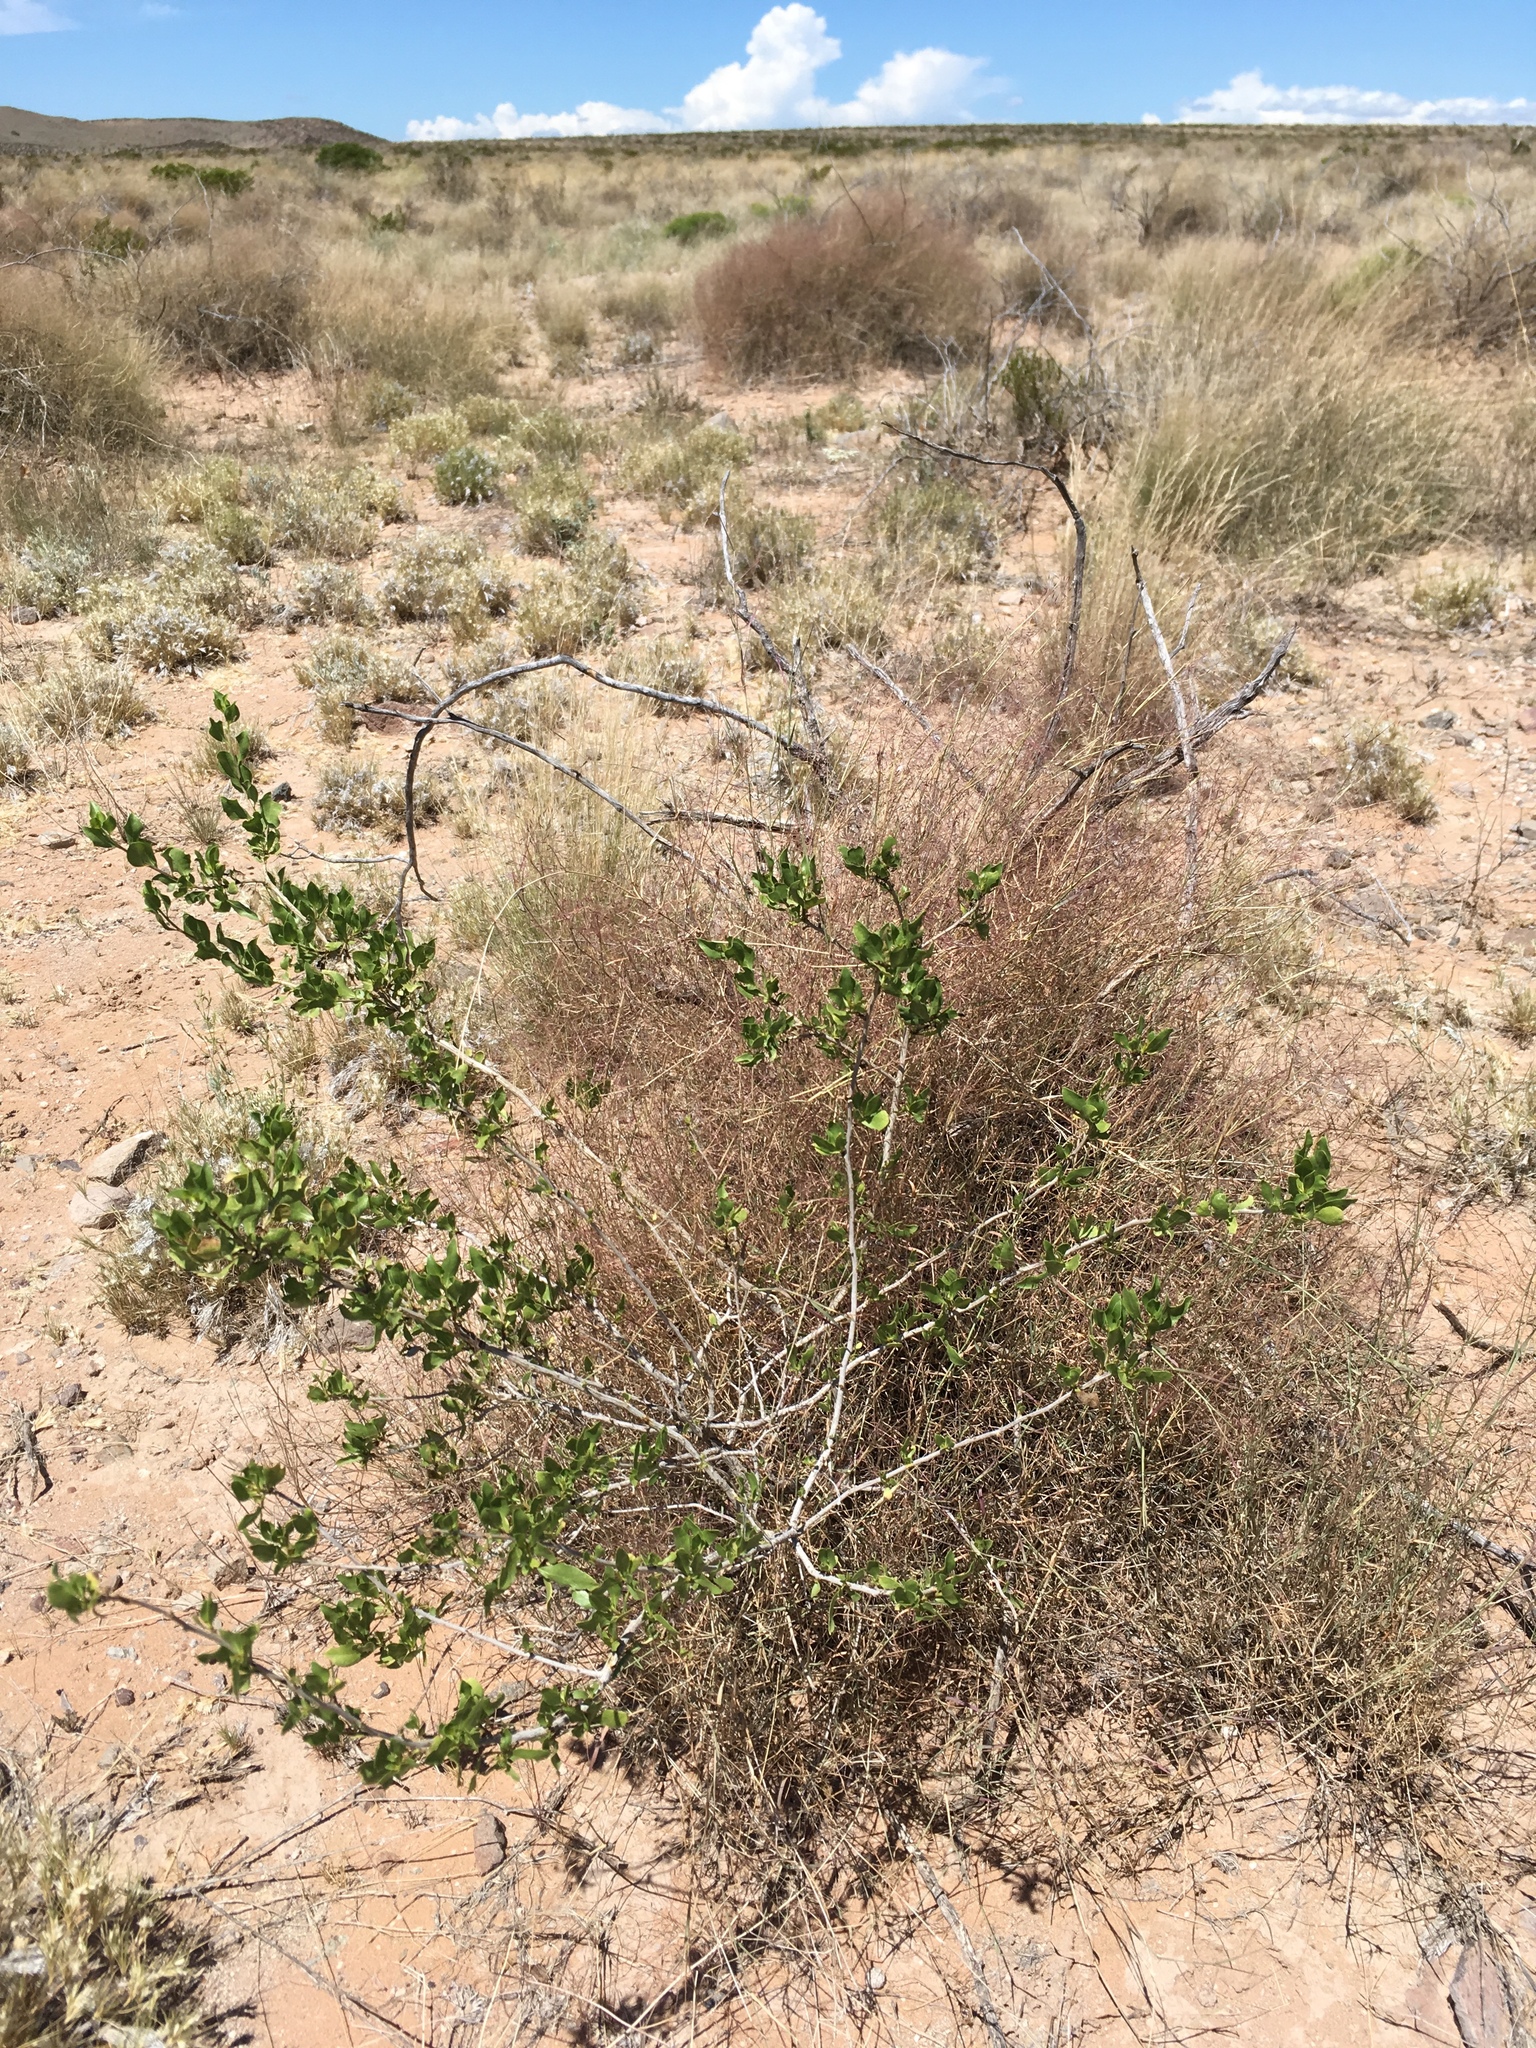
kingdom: Plantae
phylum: Tracheophyta
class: Magnoliopsida
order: Asterales
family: Asteraceae
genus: Flourensia
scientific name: Flourensia cernua
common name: Varnishbush
